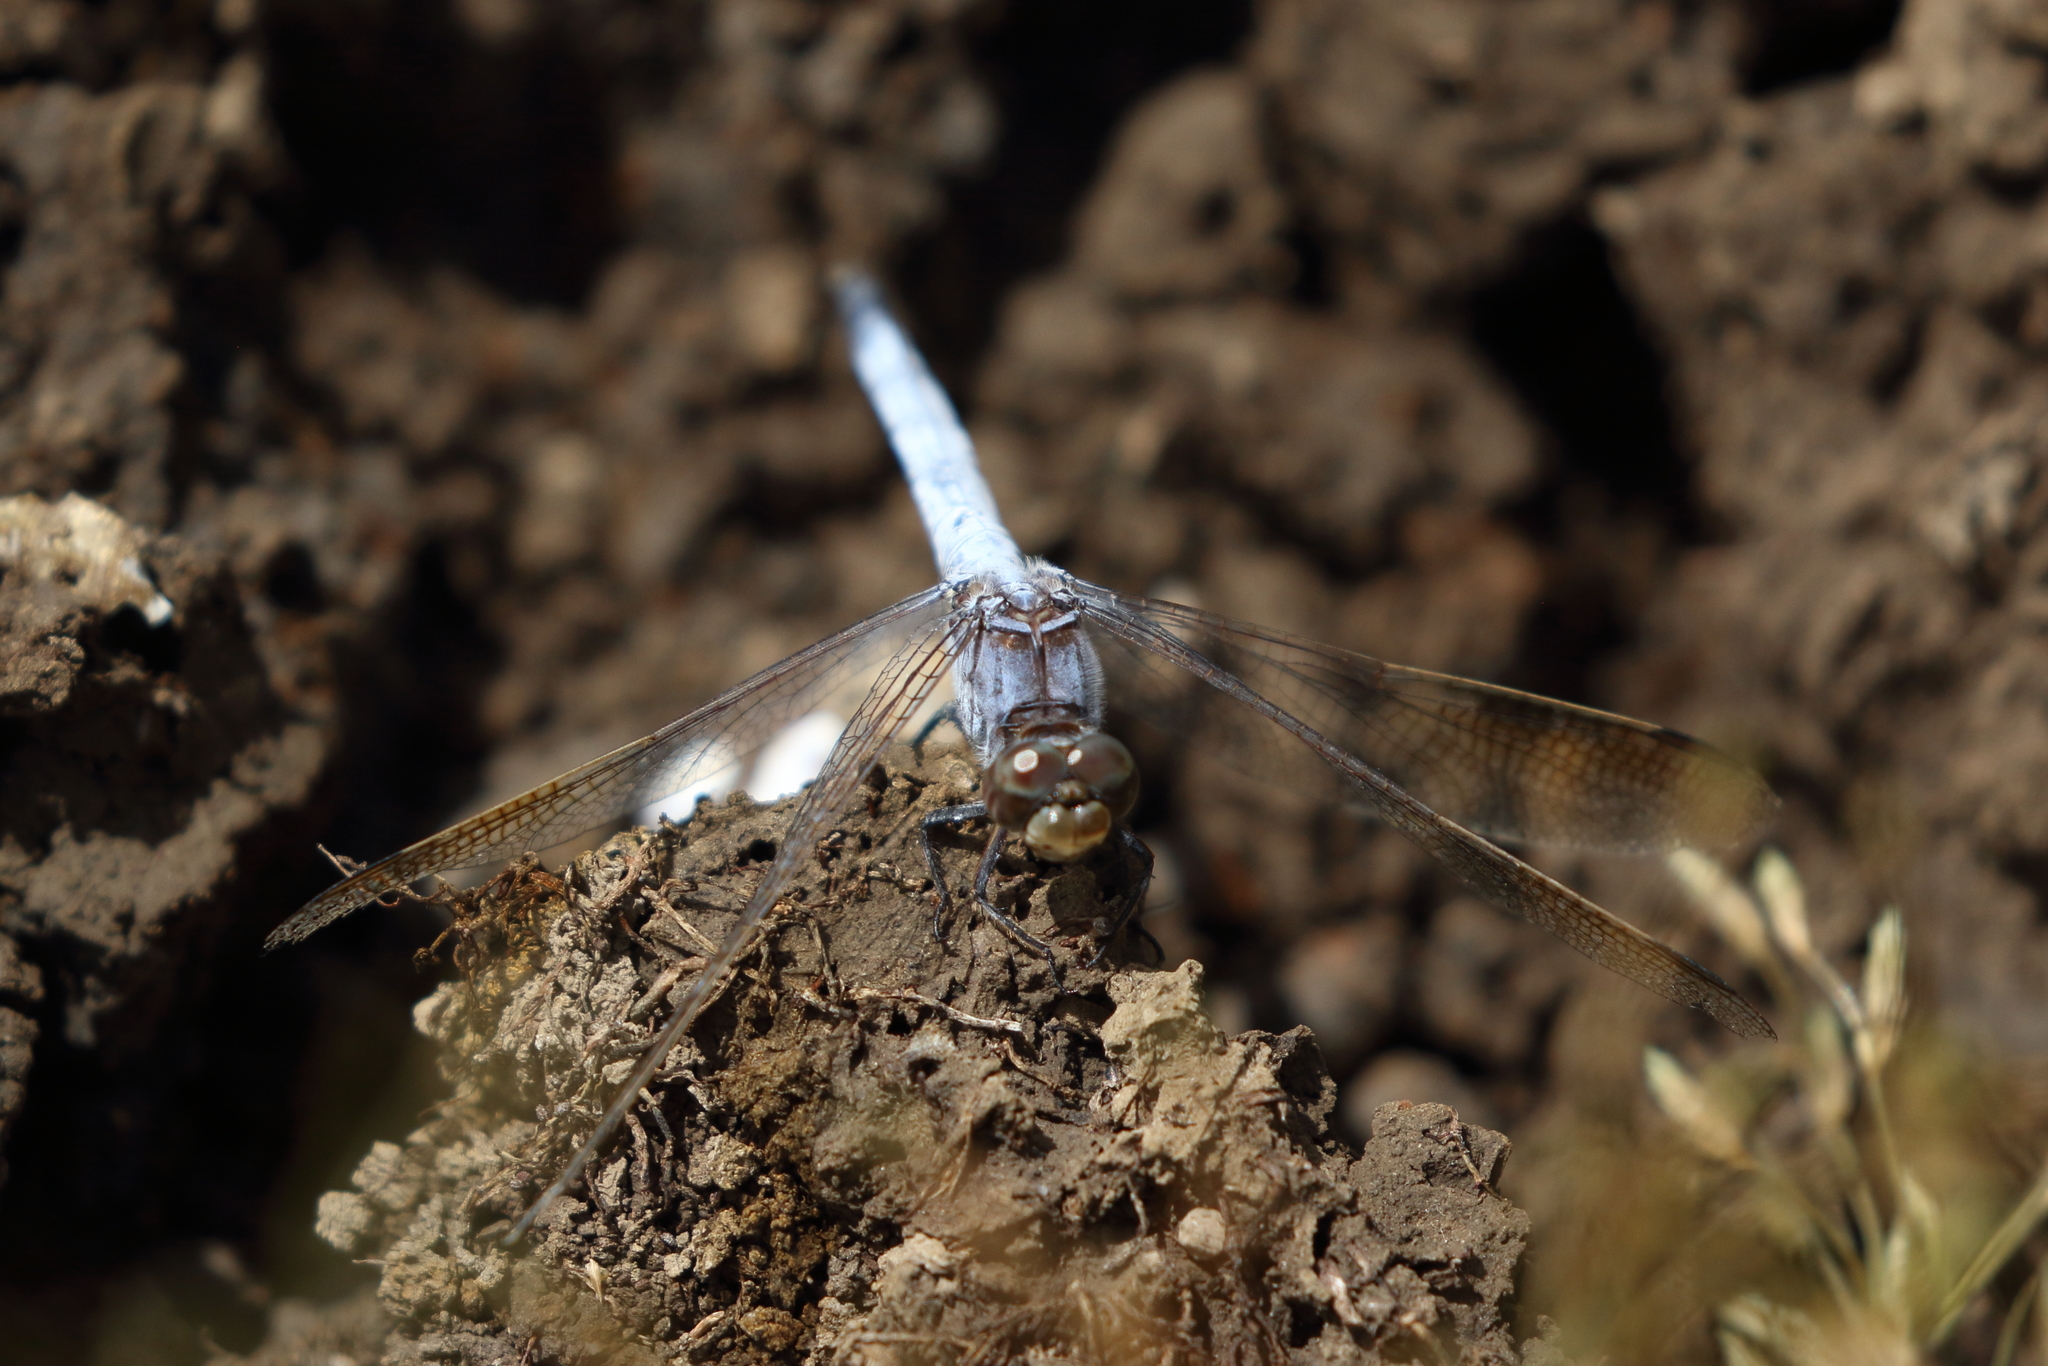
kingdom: Animalia
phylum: Arthropoda
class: Insecta
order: Odonata
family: Libellulidae
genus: Orthetrum
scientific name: Orthetrum caledonicum
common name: Blue skimmer
